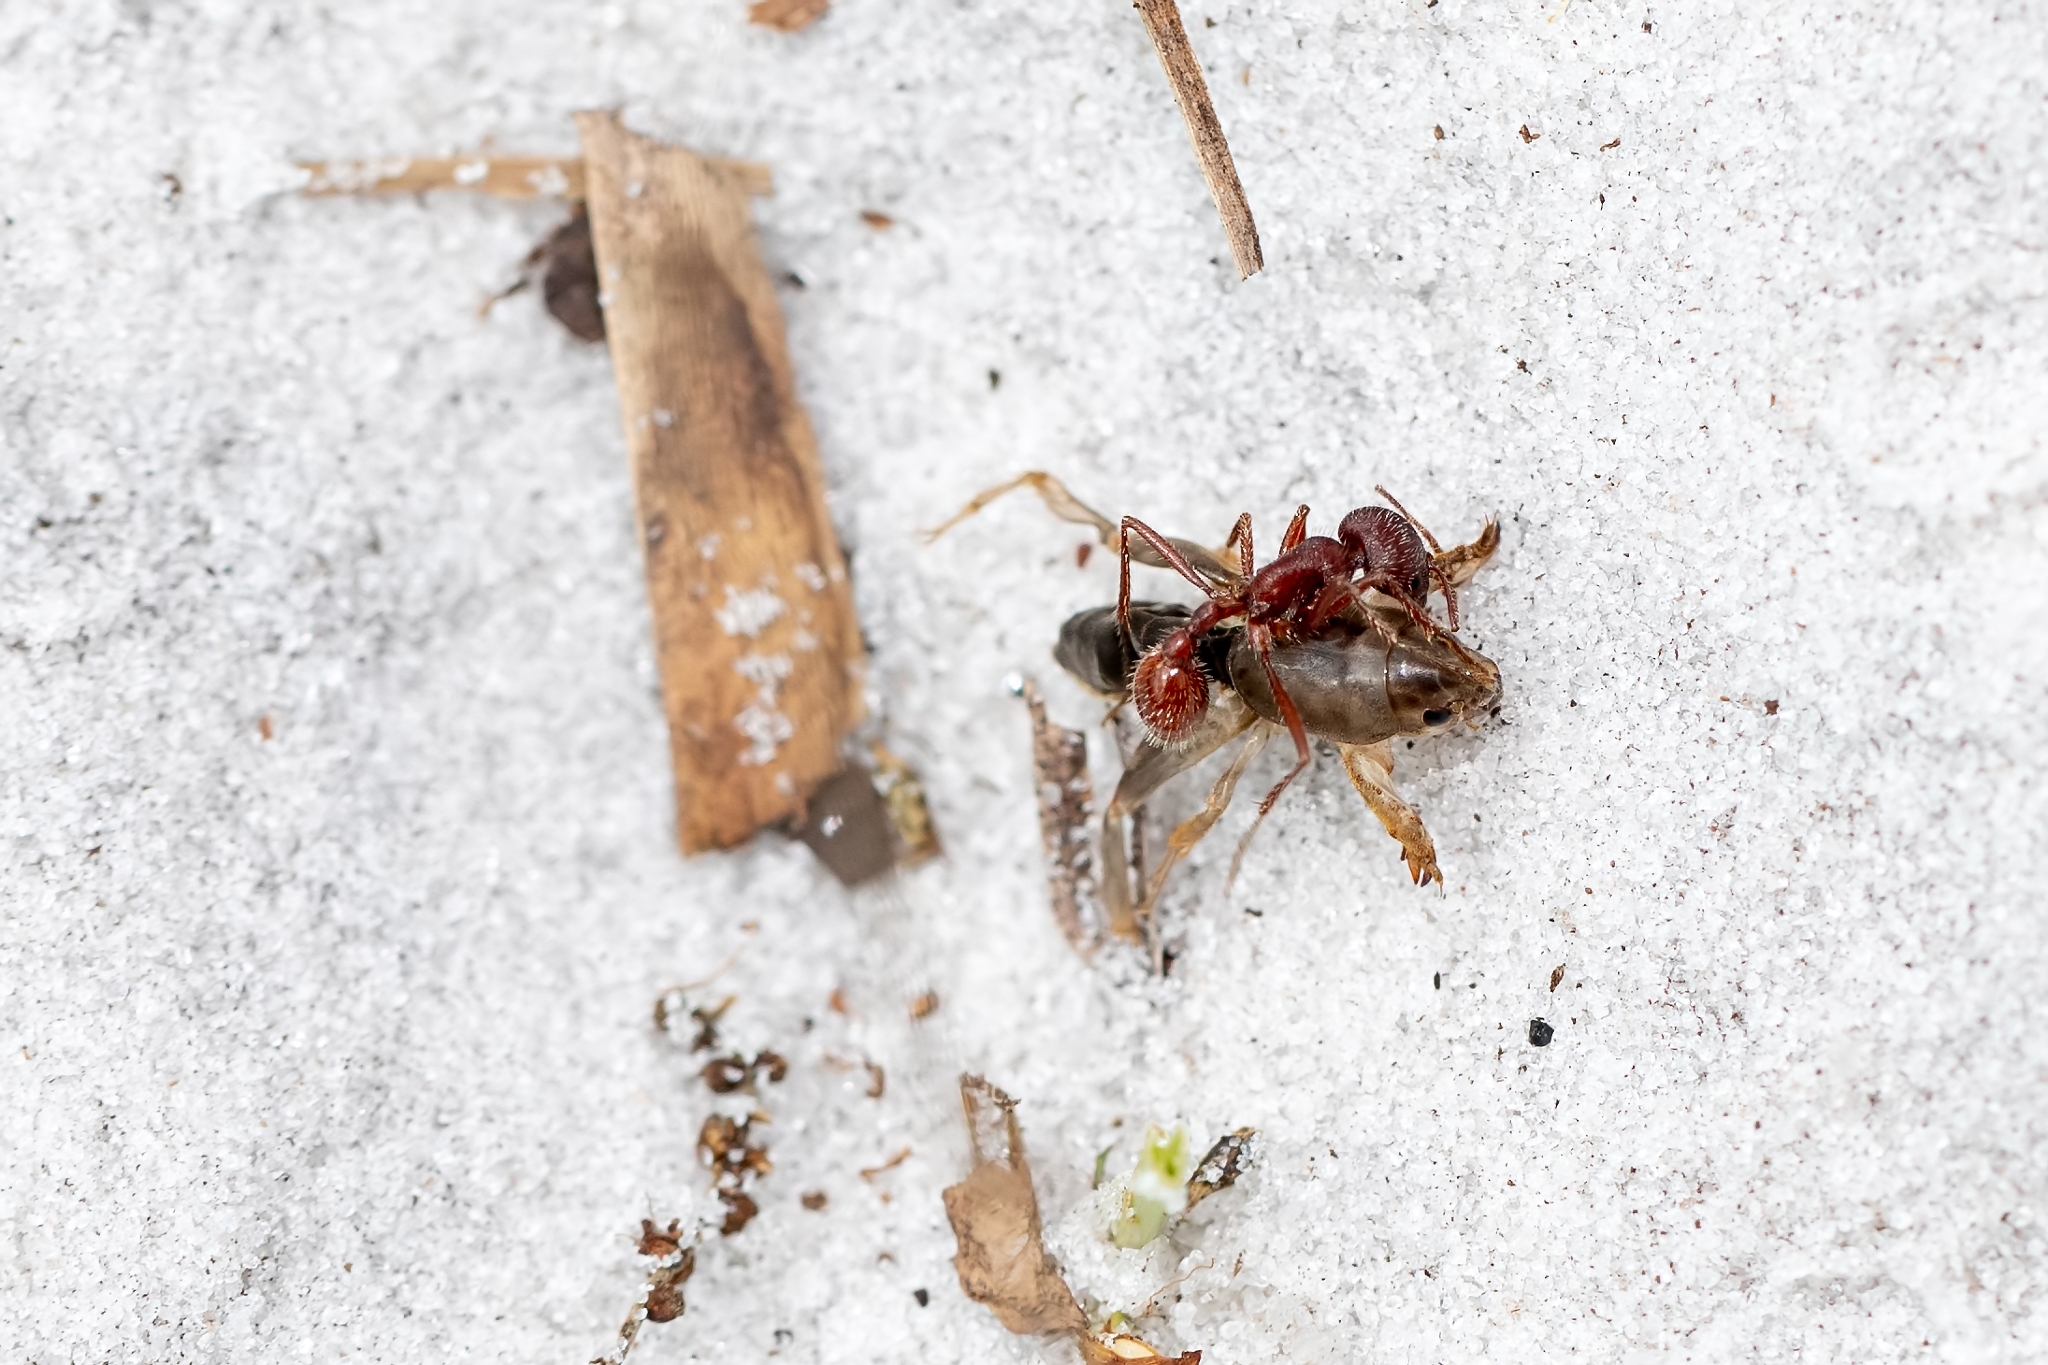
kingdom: Animalia
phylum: Arthropoda
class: Insecta
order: Hymenoptera
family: Formicidae
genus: Pogonomyrmex
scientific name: Pogonomyrmex badius
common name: Florida harvester ant
